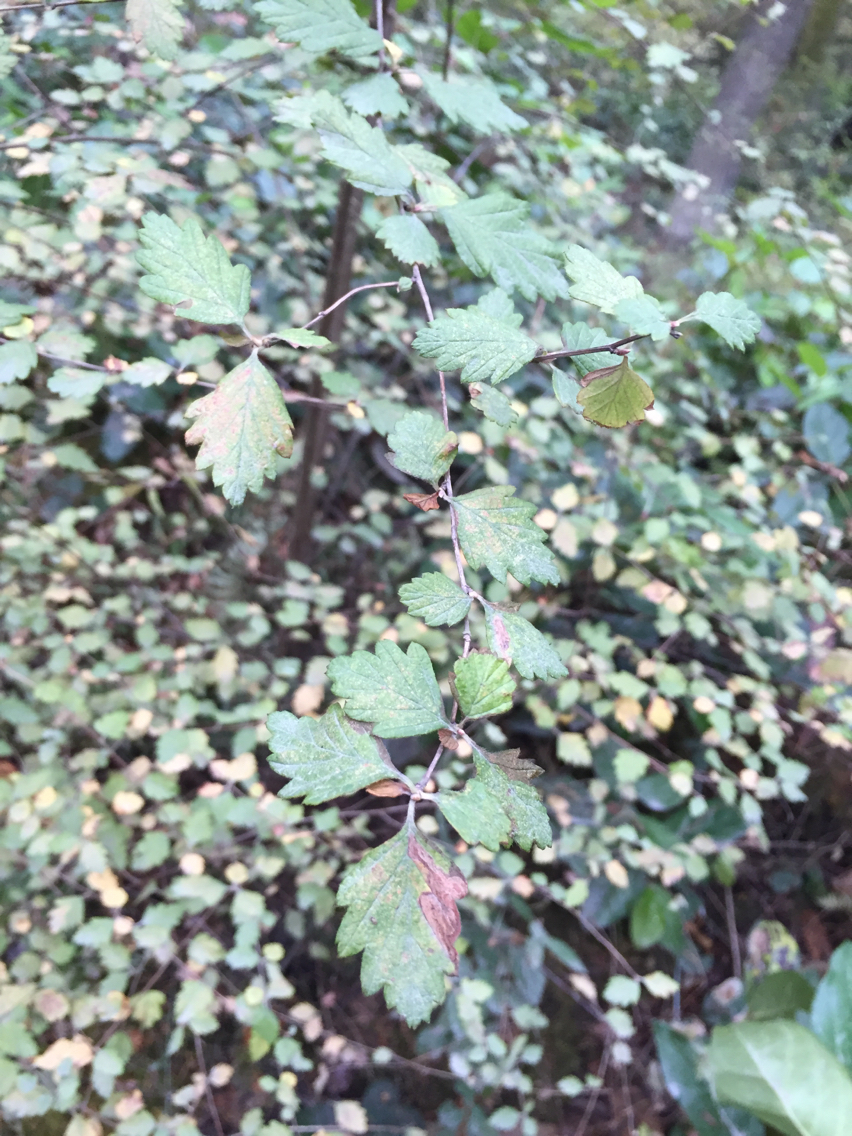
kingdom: Plantae
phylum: Tracheophyta
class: Magnoliopsida
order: Rosales
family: Rosaceae
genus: Holodiscus
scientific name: Holodiscus discolor
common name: Oceanspray
